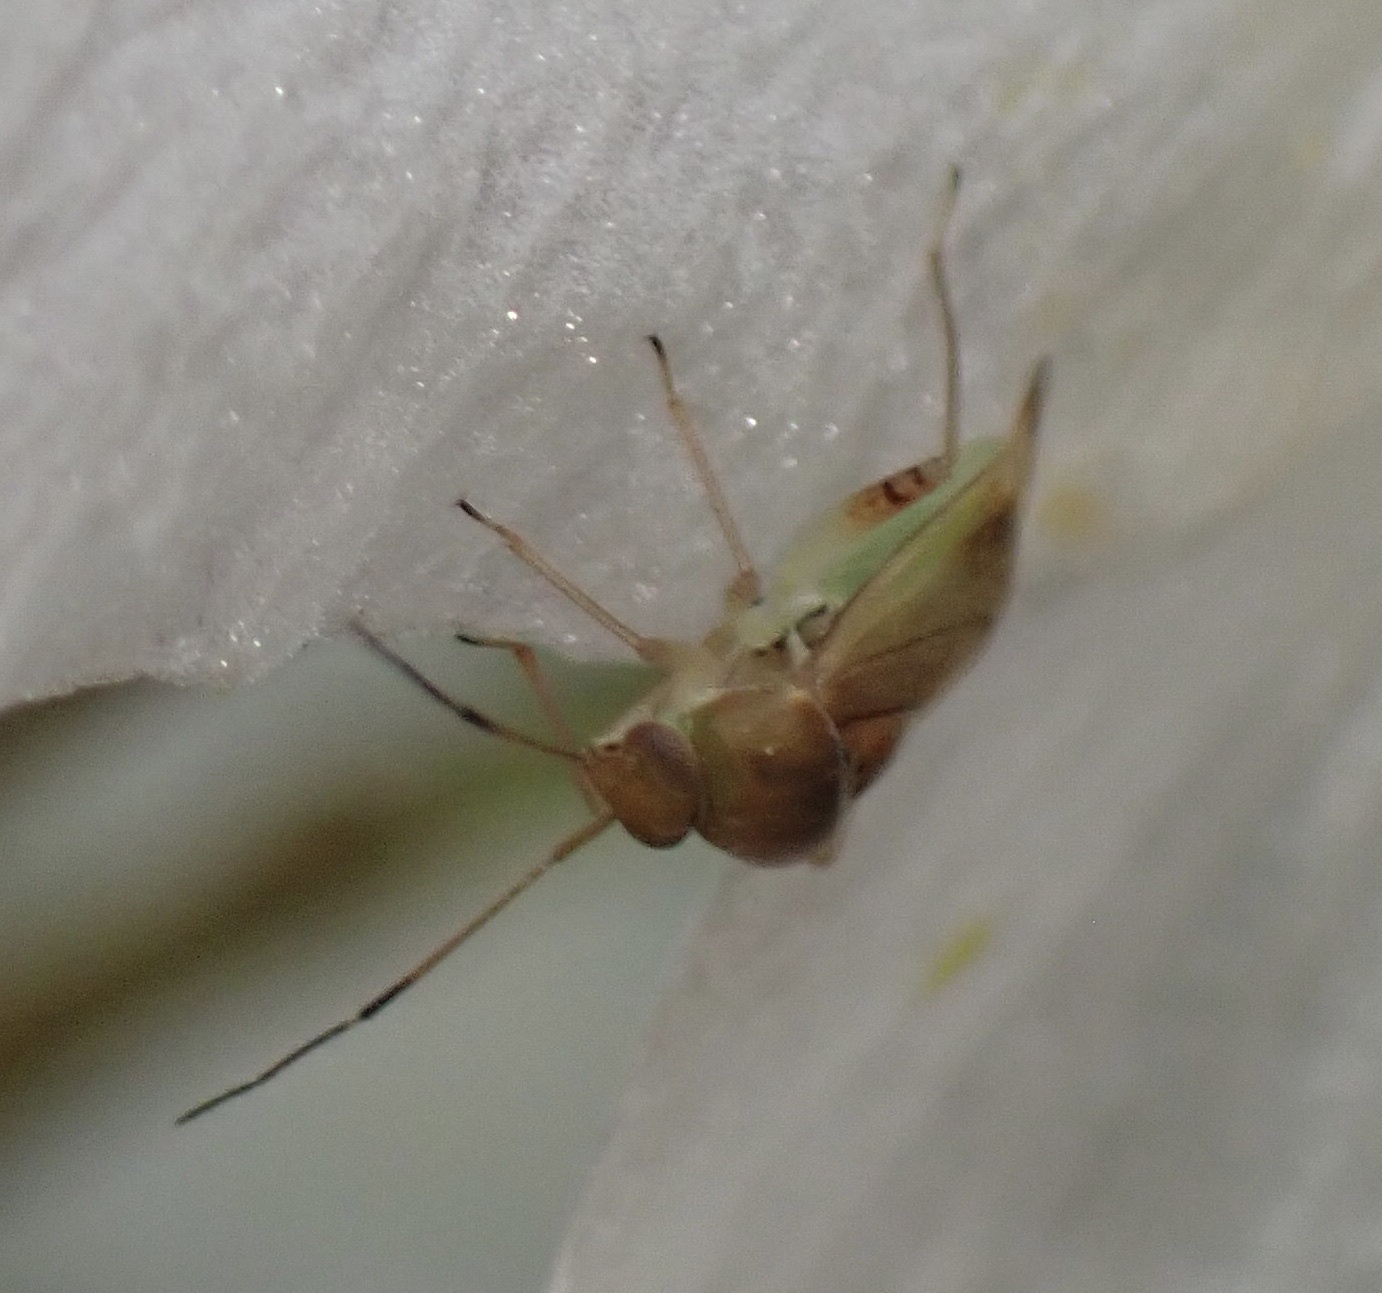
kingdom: Animalia
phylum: Arthropoda
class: Insecta
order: Hemiptera
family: Miridae
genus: Pinalitus
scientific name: Pinalitus cervinus
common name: Plant bug
